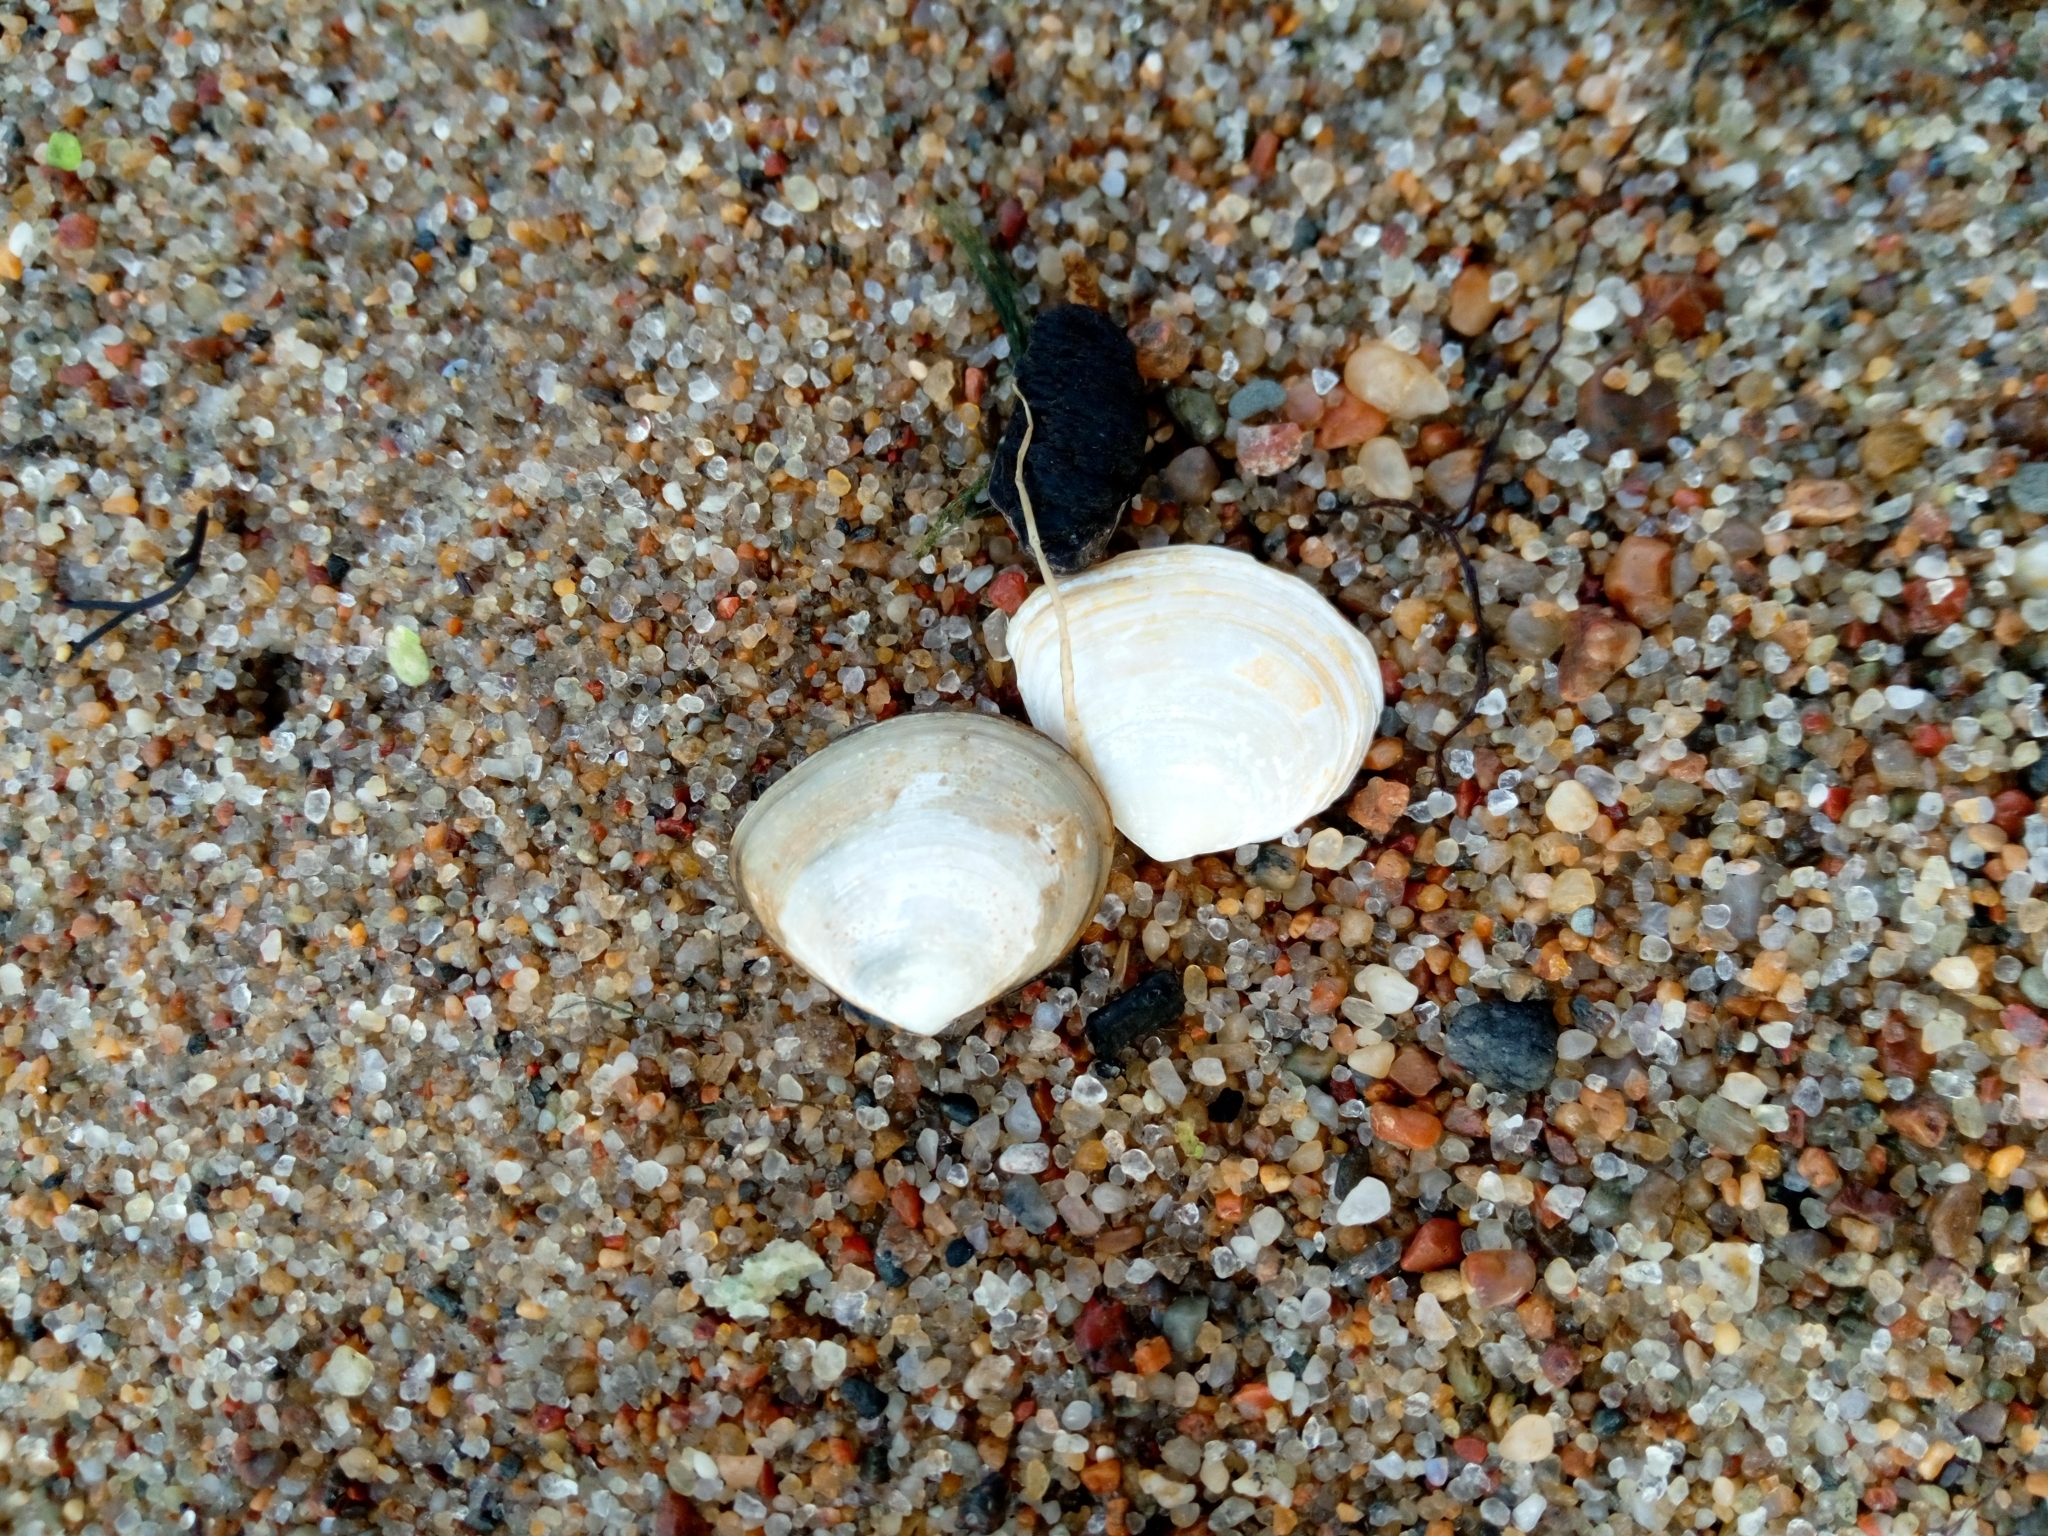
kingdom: Animalia
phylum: Mollusca
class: Bivalvia
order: Cardiida
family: Tellinidae
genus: Macoma
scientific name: Macoma balthica
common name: Baltic tellin
